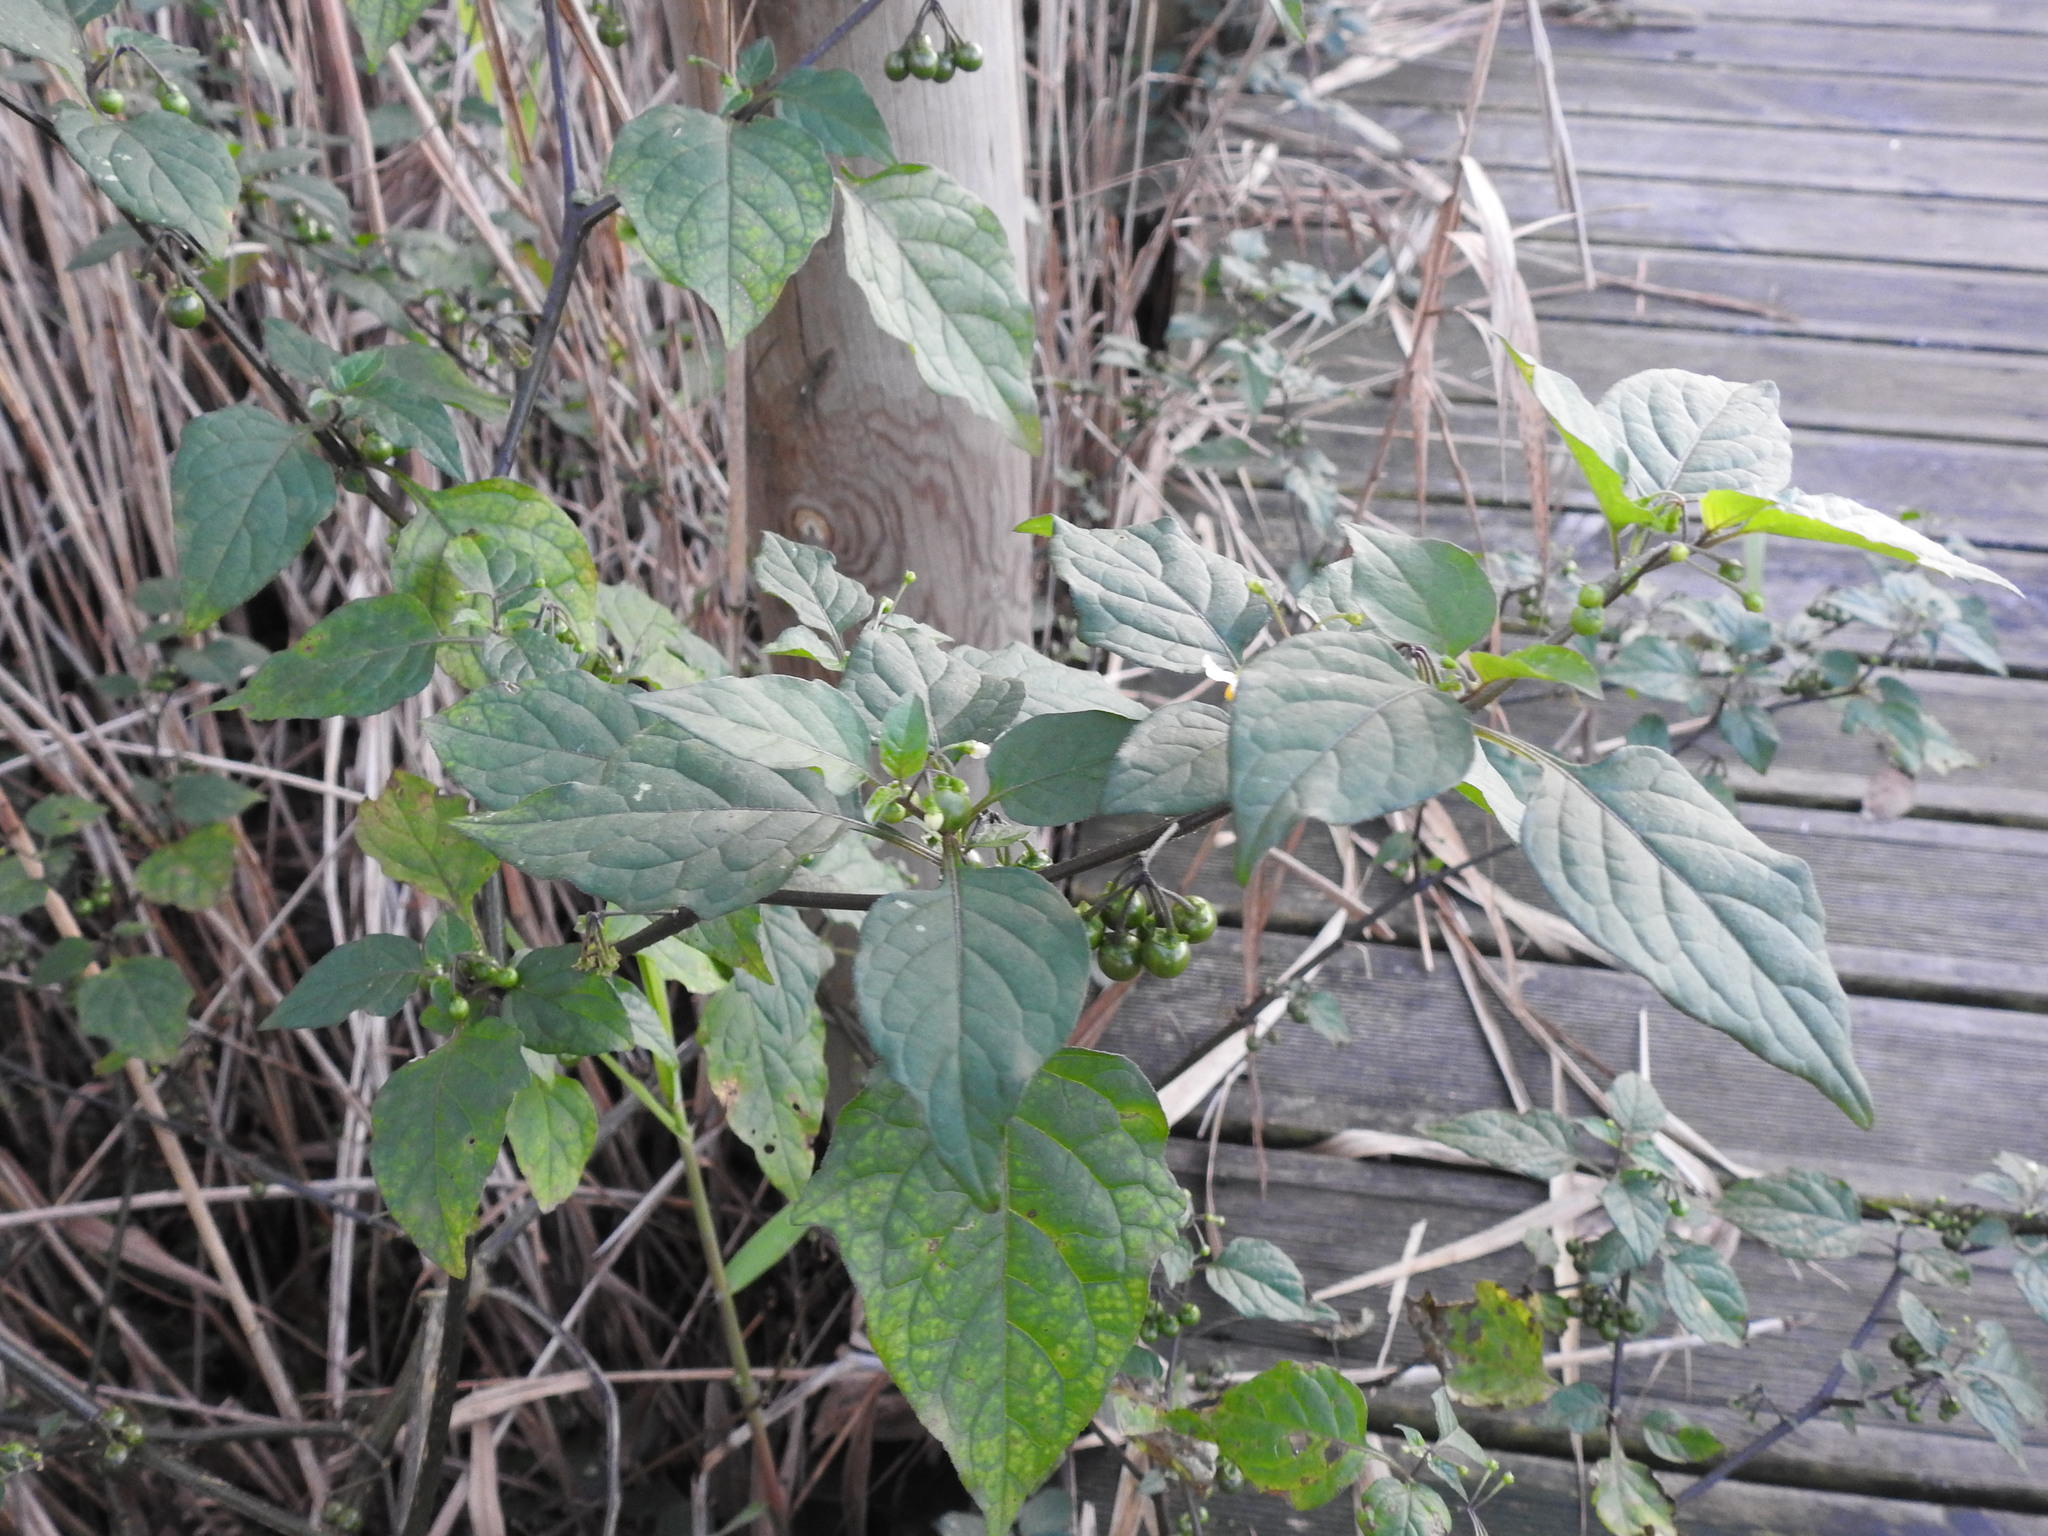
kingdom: Plantae
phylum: Tracheophyta
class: Magnoliopsida
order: Solanales
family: Solanaceae
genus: Solanum
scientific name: Solanum nigrum
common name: Black nightshade
